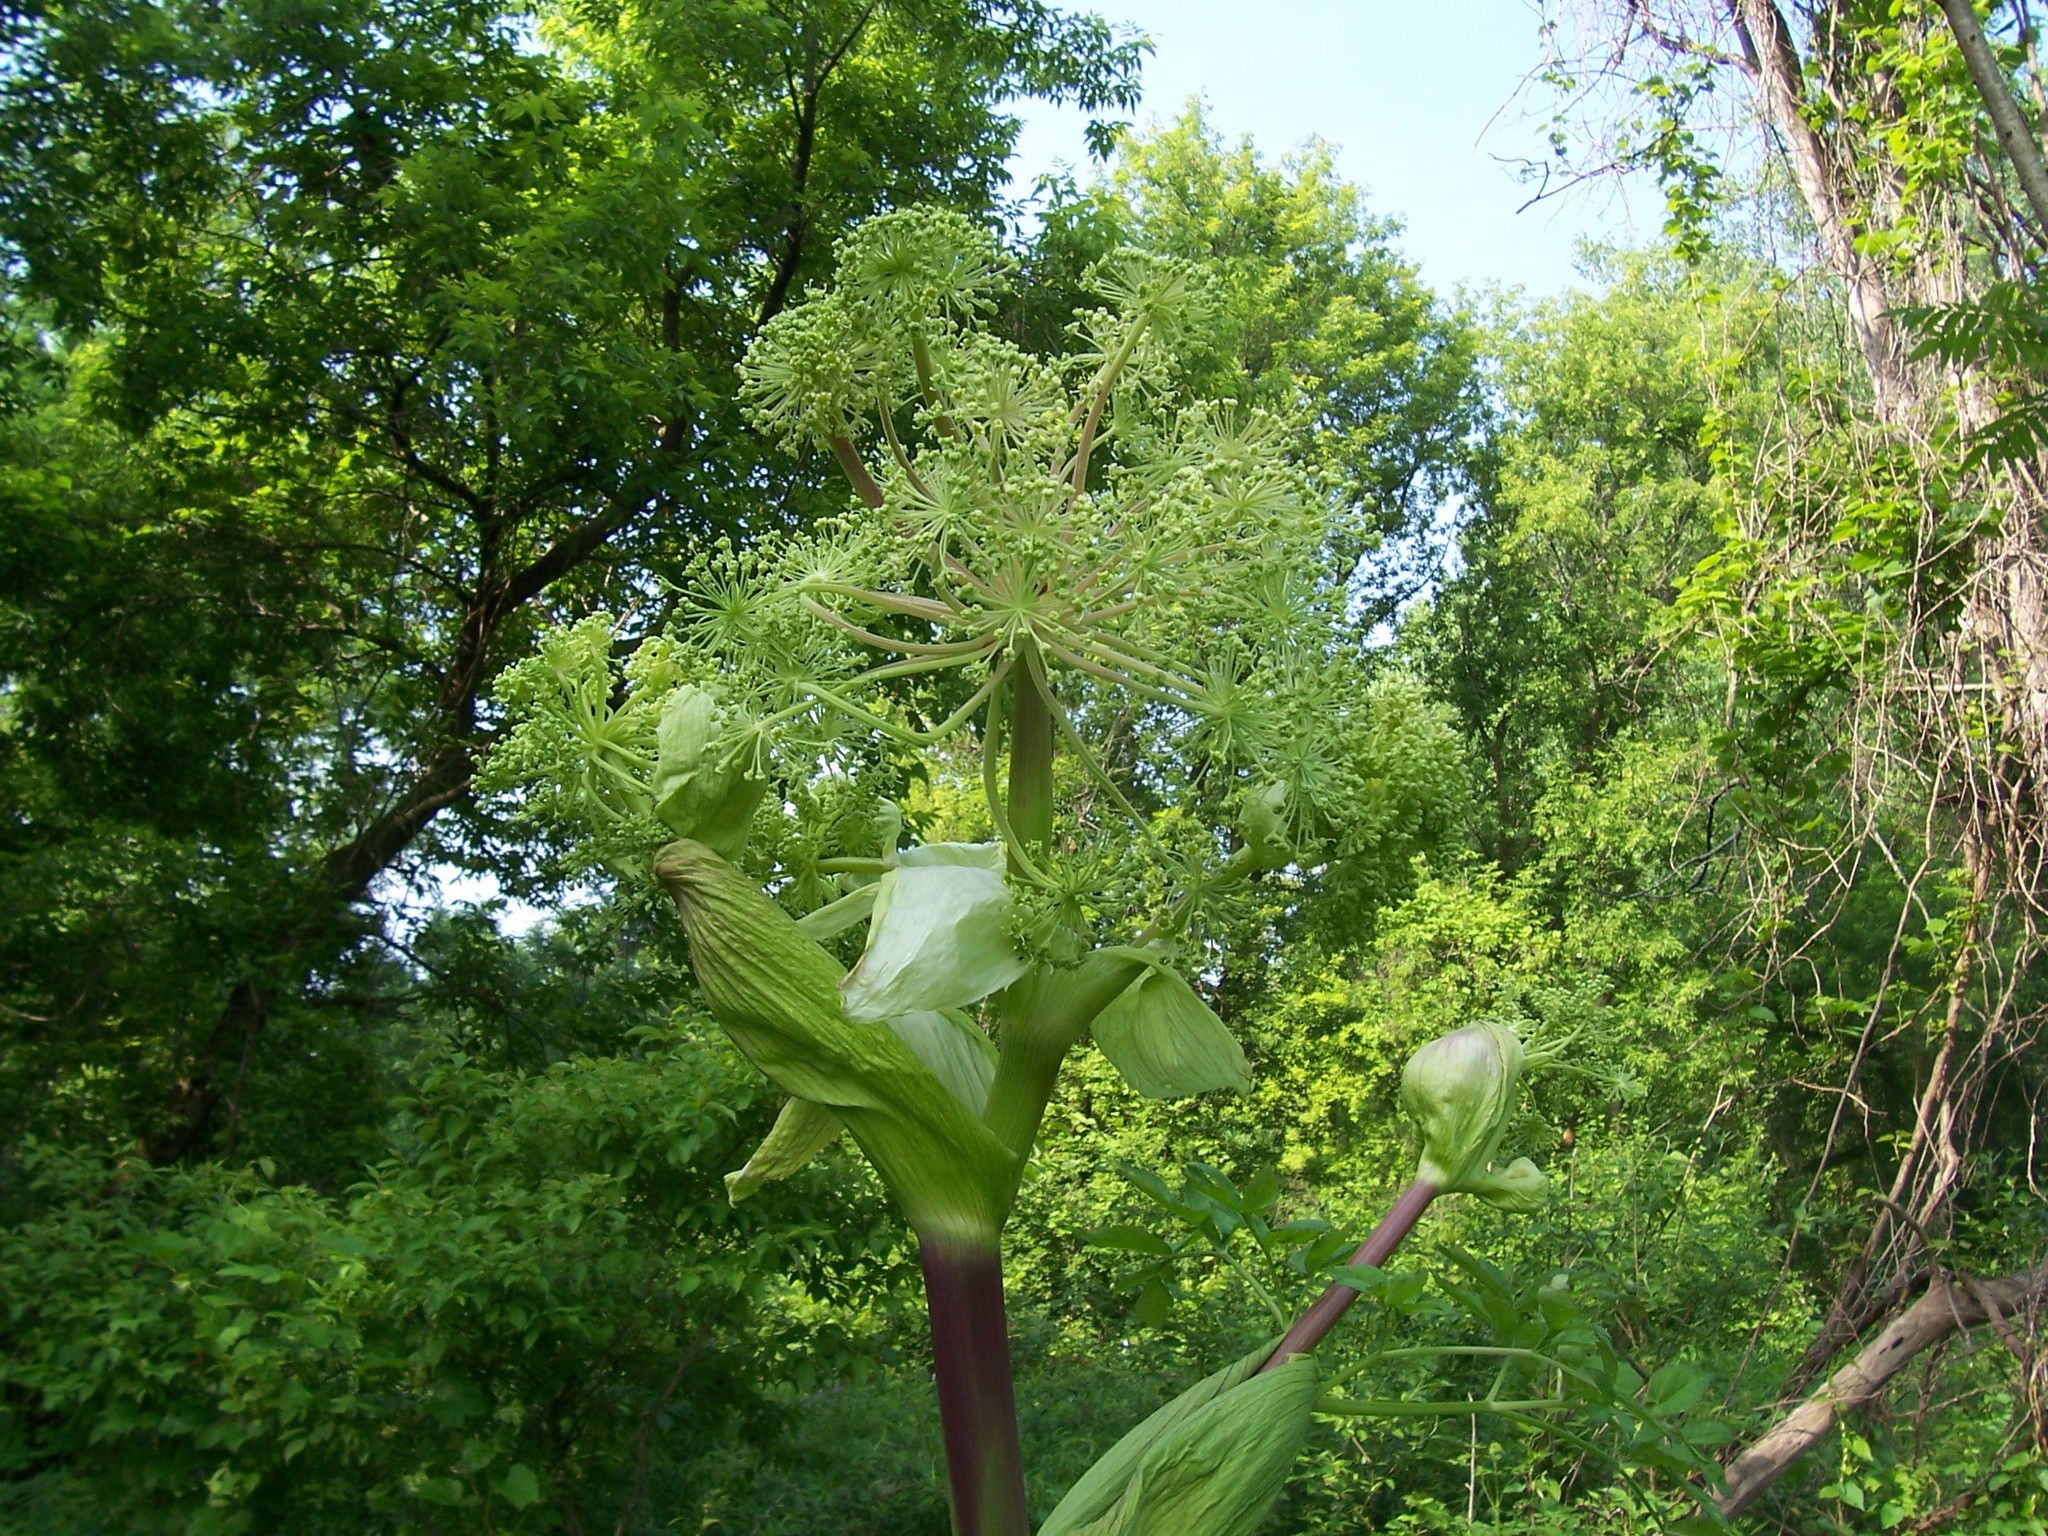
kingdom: Plantae
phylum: Tracheophyta
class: Magnoliopsida
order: Apiales
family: Apiaceae
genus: Angelica
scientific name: Angelica atropurpurea
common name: Great angelica
